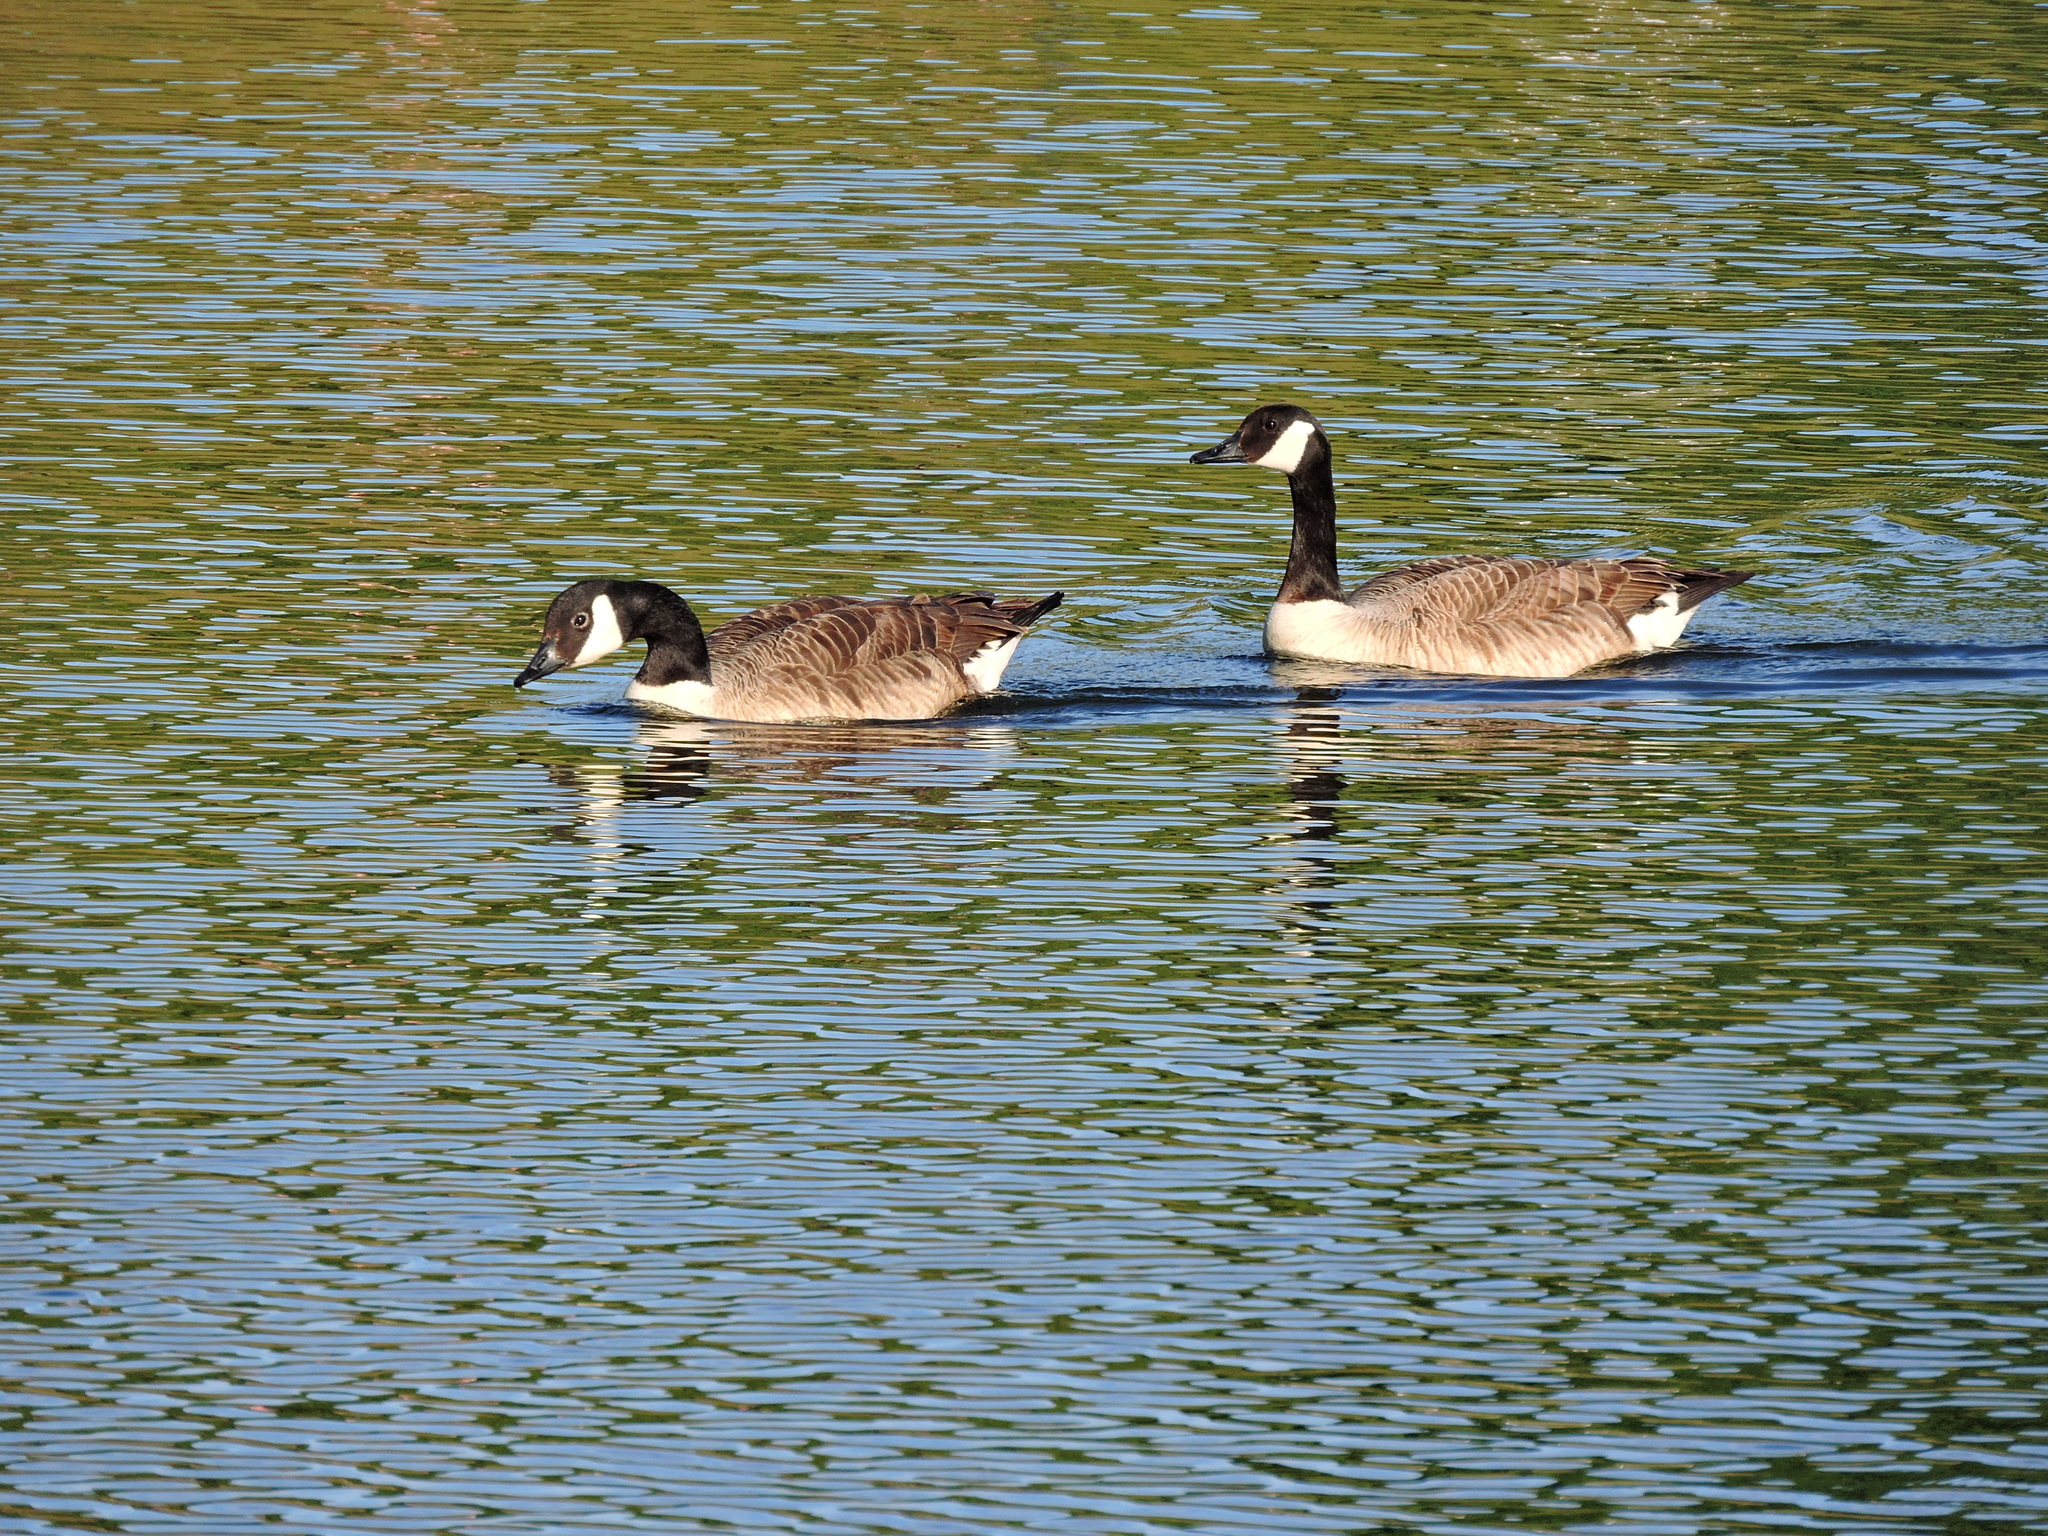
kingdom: Animalia
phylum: Chordata
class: Aves
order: Anseriformes
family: Anatidae
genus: Branta
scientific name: Branta canadensis
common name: Canada goose
